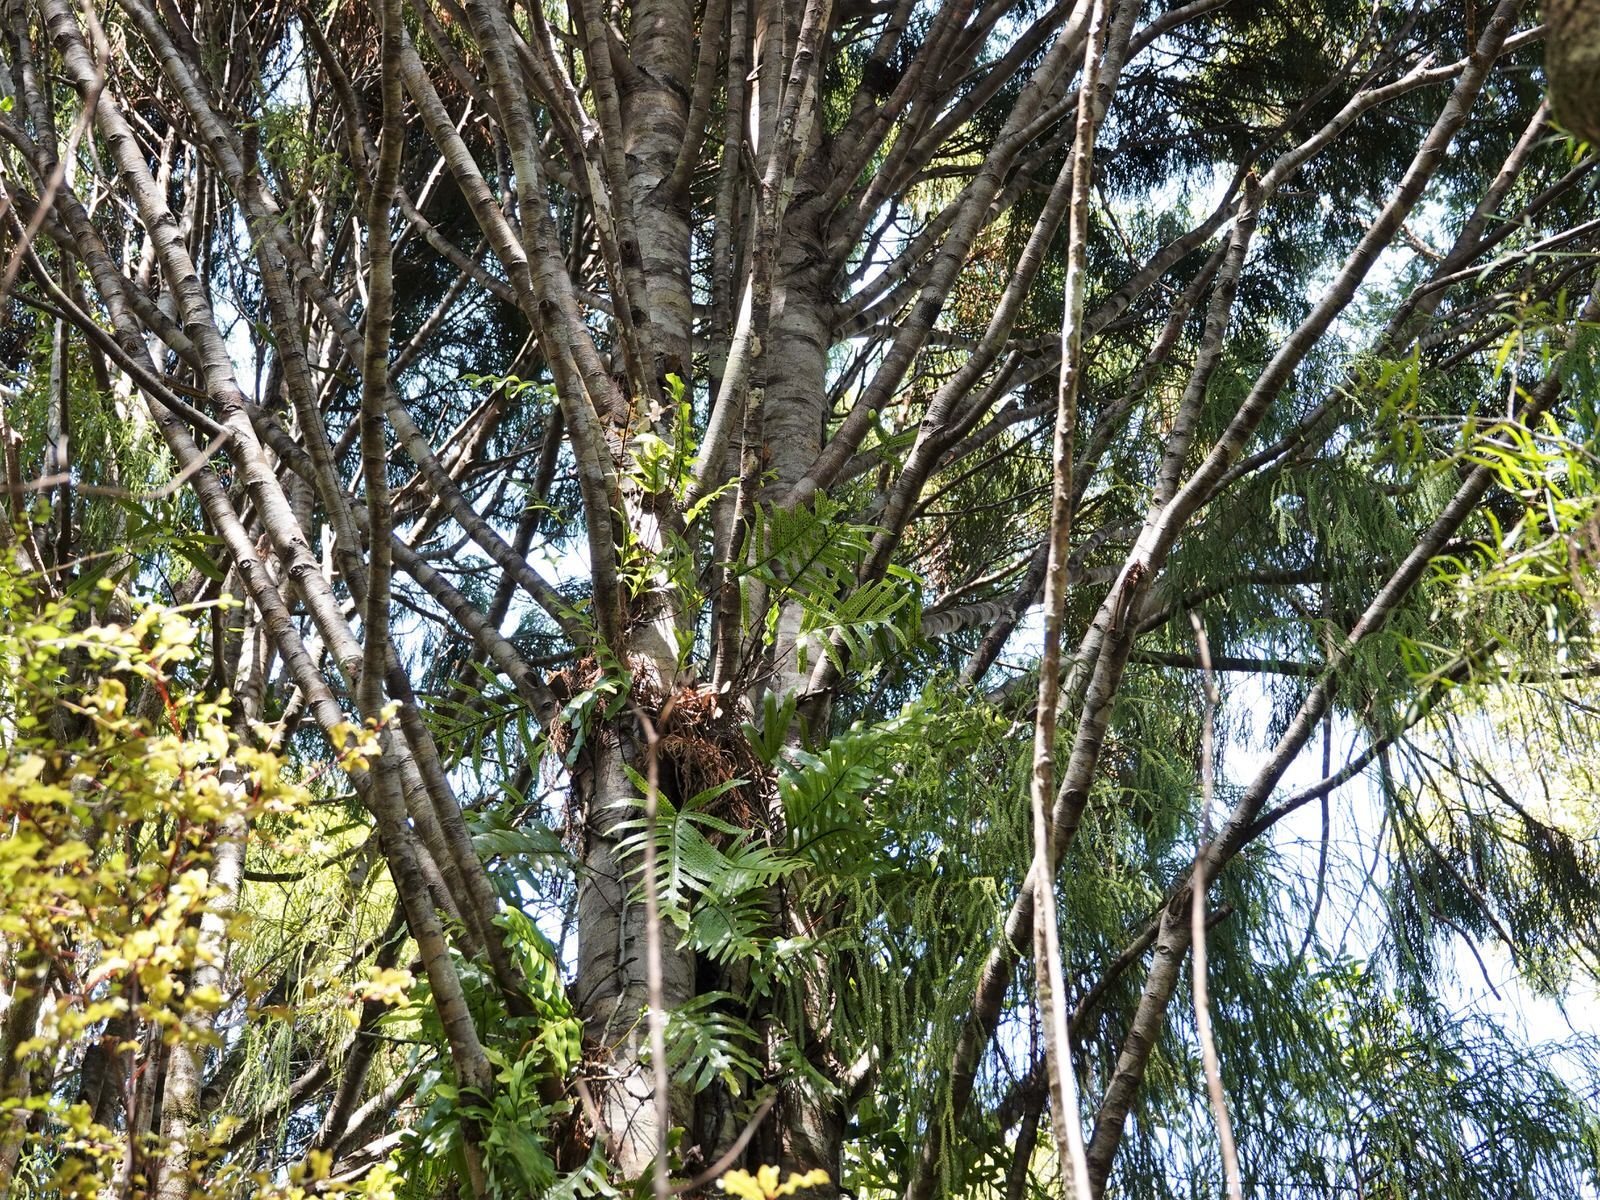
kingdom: Plantae
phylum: Tracheophyta
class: Polypodiopsida
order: Polypodiales
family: Polypodiaceae
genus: Lecanopteris
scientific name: Lecanopteris pustulata
